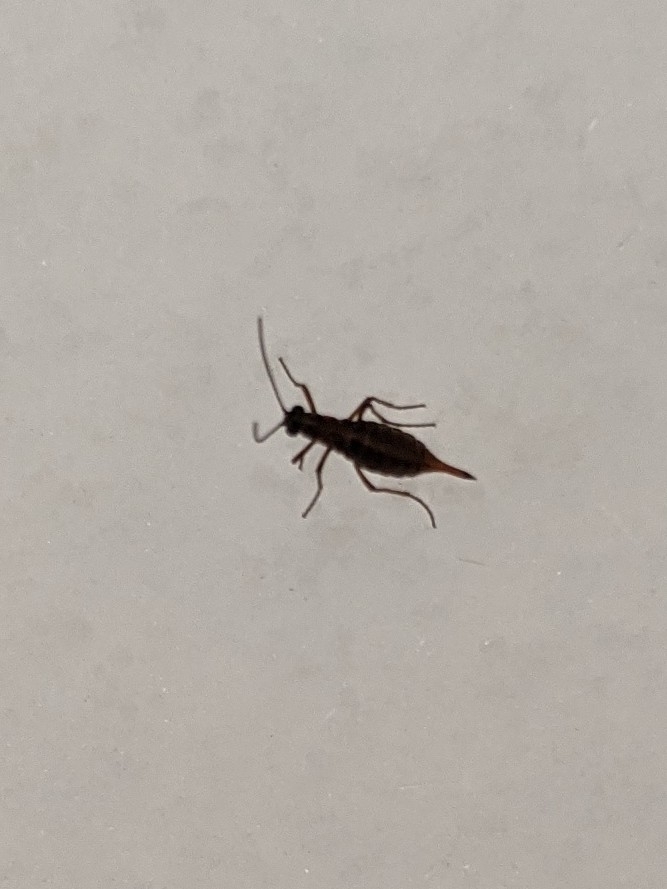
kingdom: Animalia
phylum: Arthropoda
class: Insecta
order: Mecoptera
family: Boreidae
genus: Boreus
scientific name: Boreus nivoriundus
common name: Snow-born boreus
